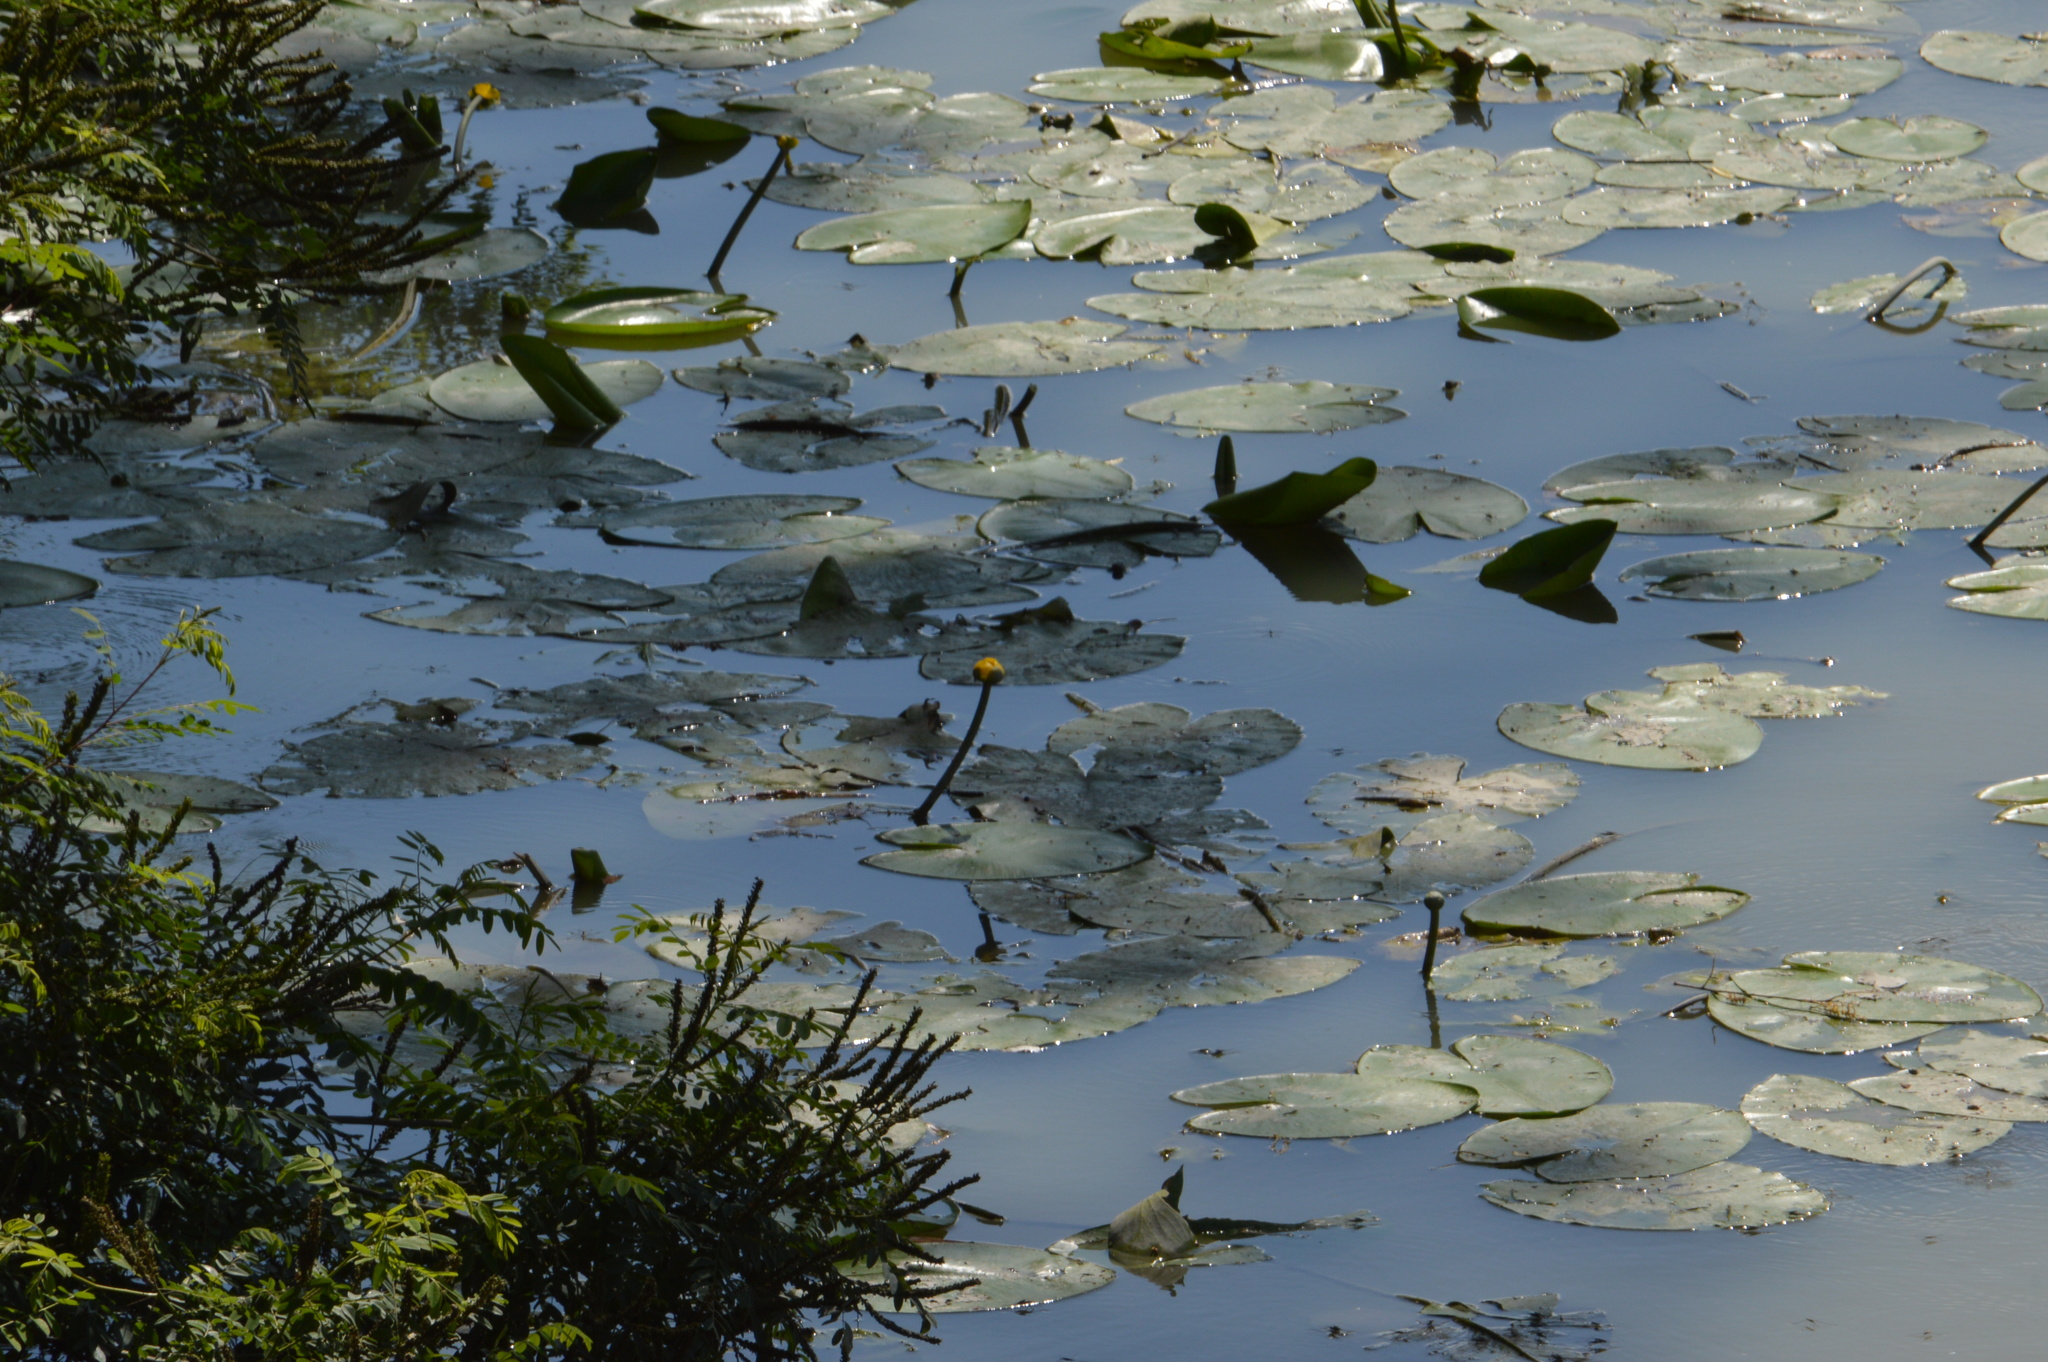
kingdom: Plantae
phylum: Tracheophyta
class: Magnoliopsida
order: Nymphaeales
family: Nymphaeaceae
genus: Nuphar
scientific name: Nuphar lutea
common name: Yellow water-lily
